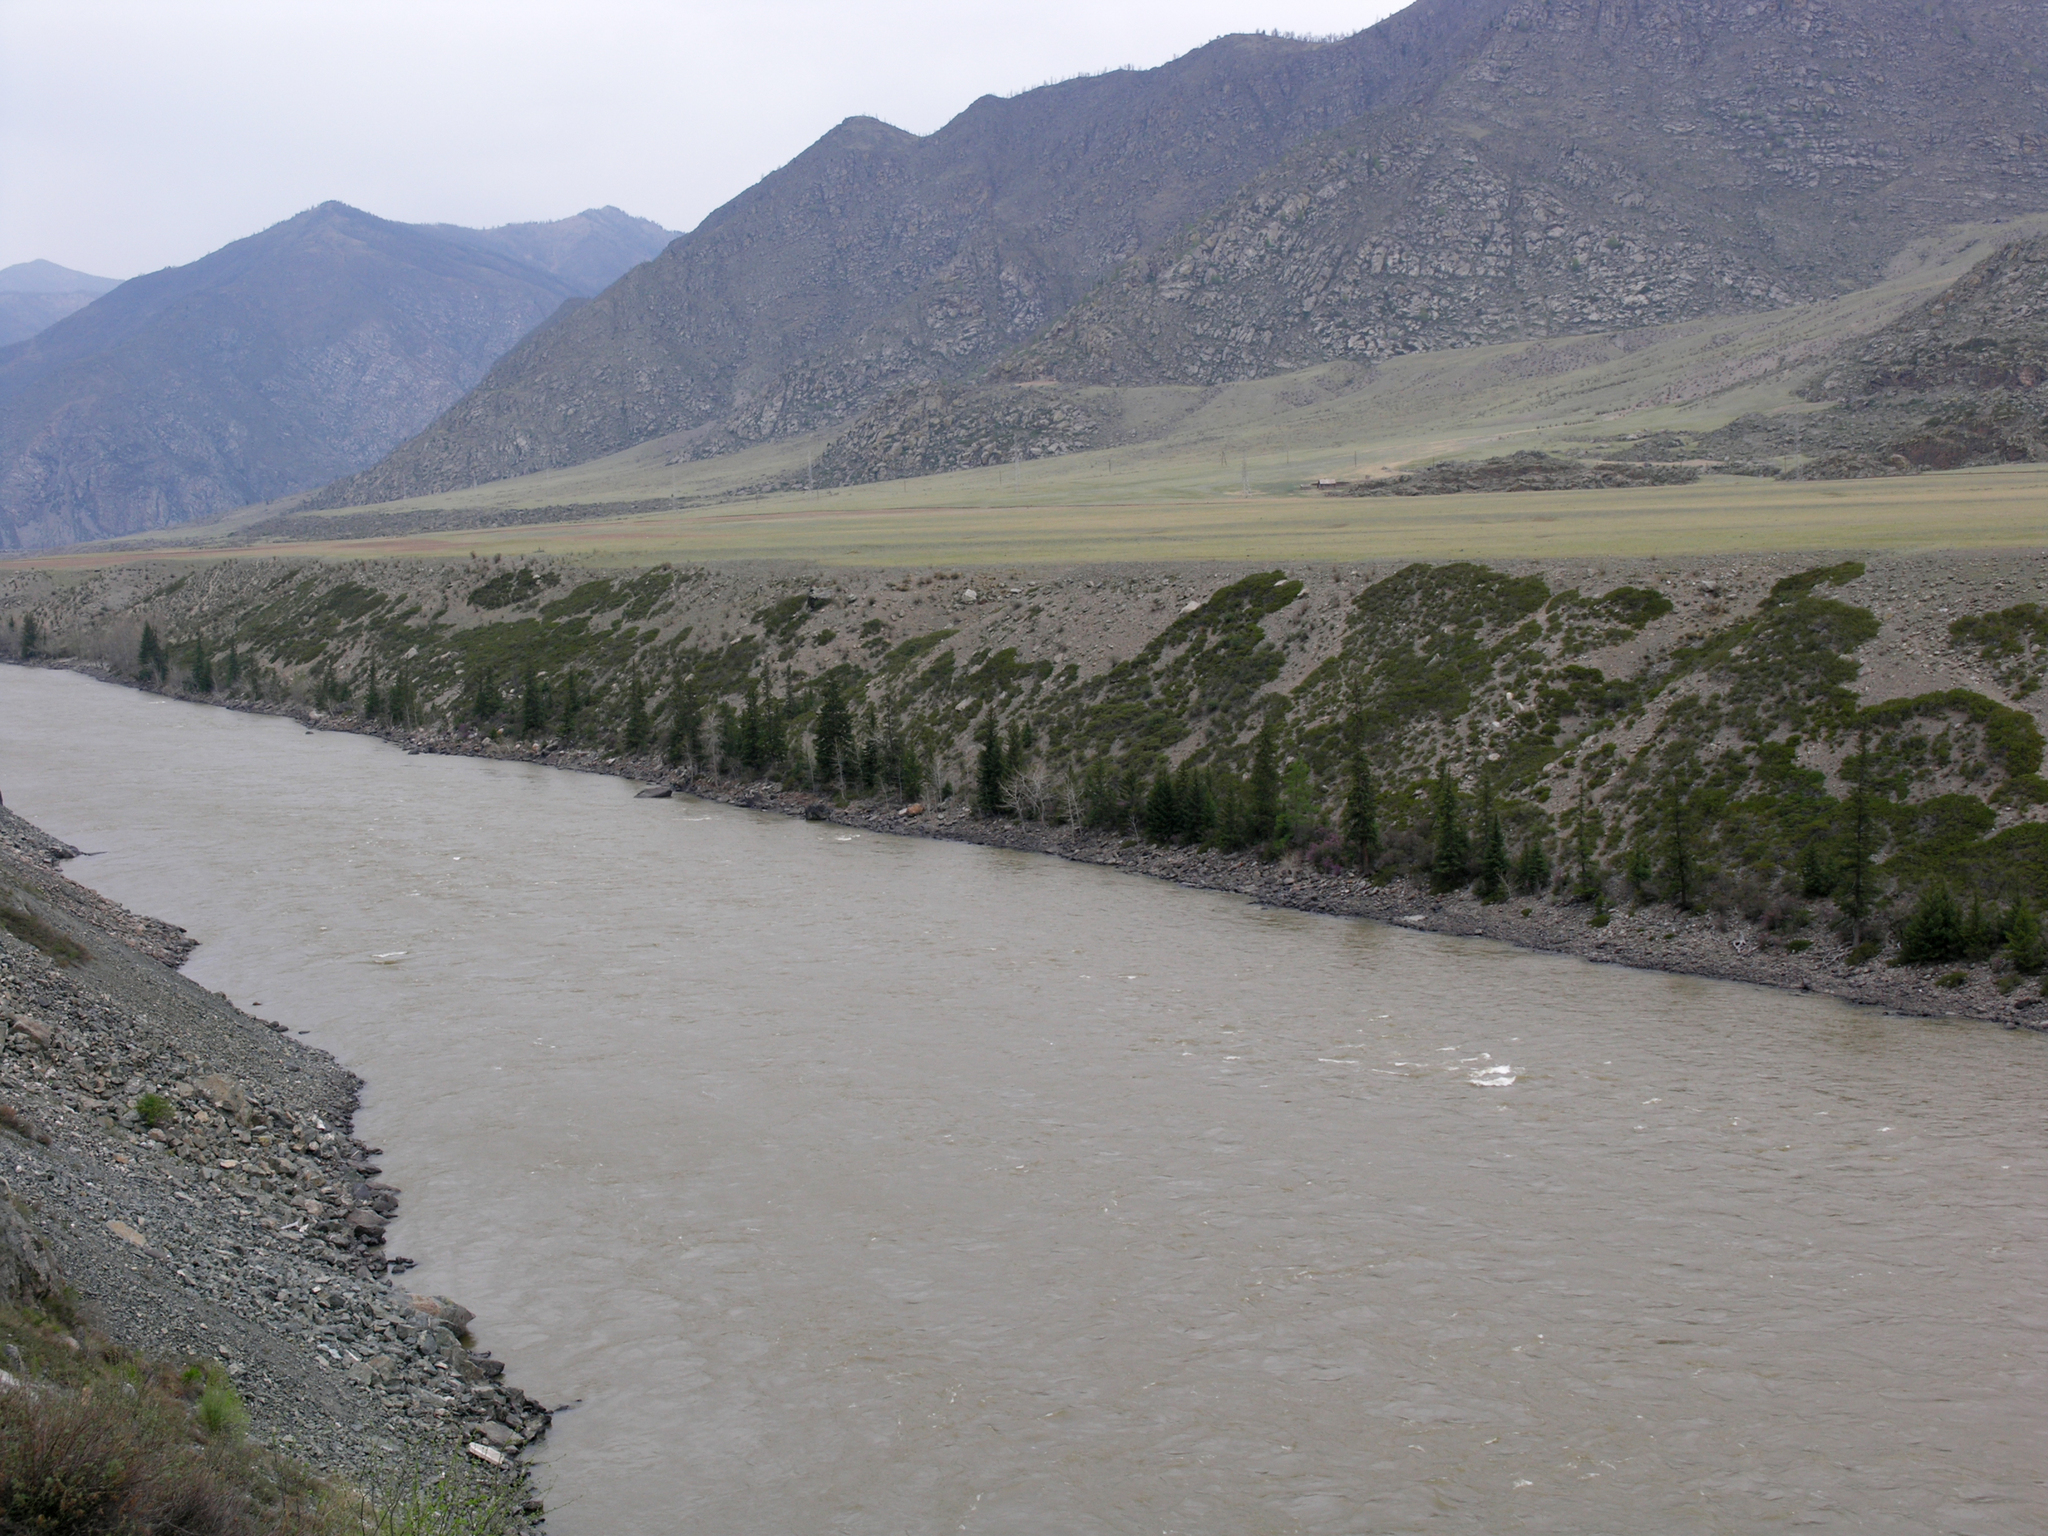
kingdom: Plantae
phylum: Tracheophyta
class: Pinopsida
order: Pinales
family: Pinaceae
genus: Picea
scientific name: Picea obovata
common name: Siberian spruce
